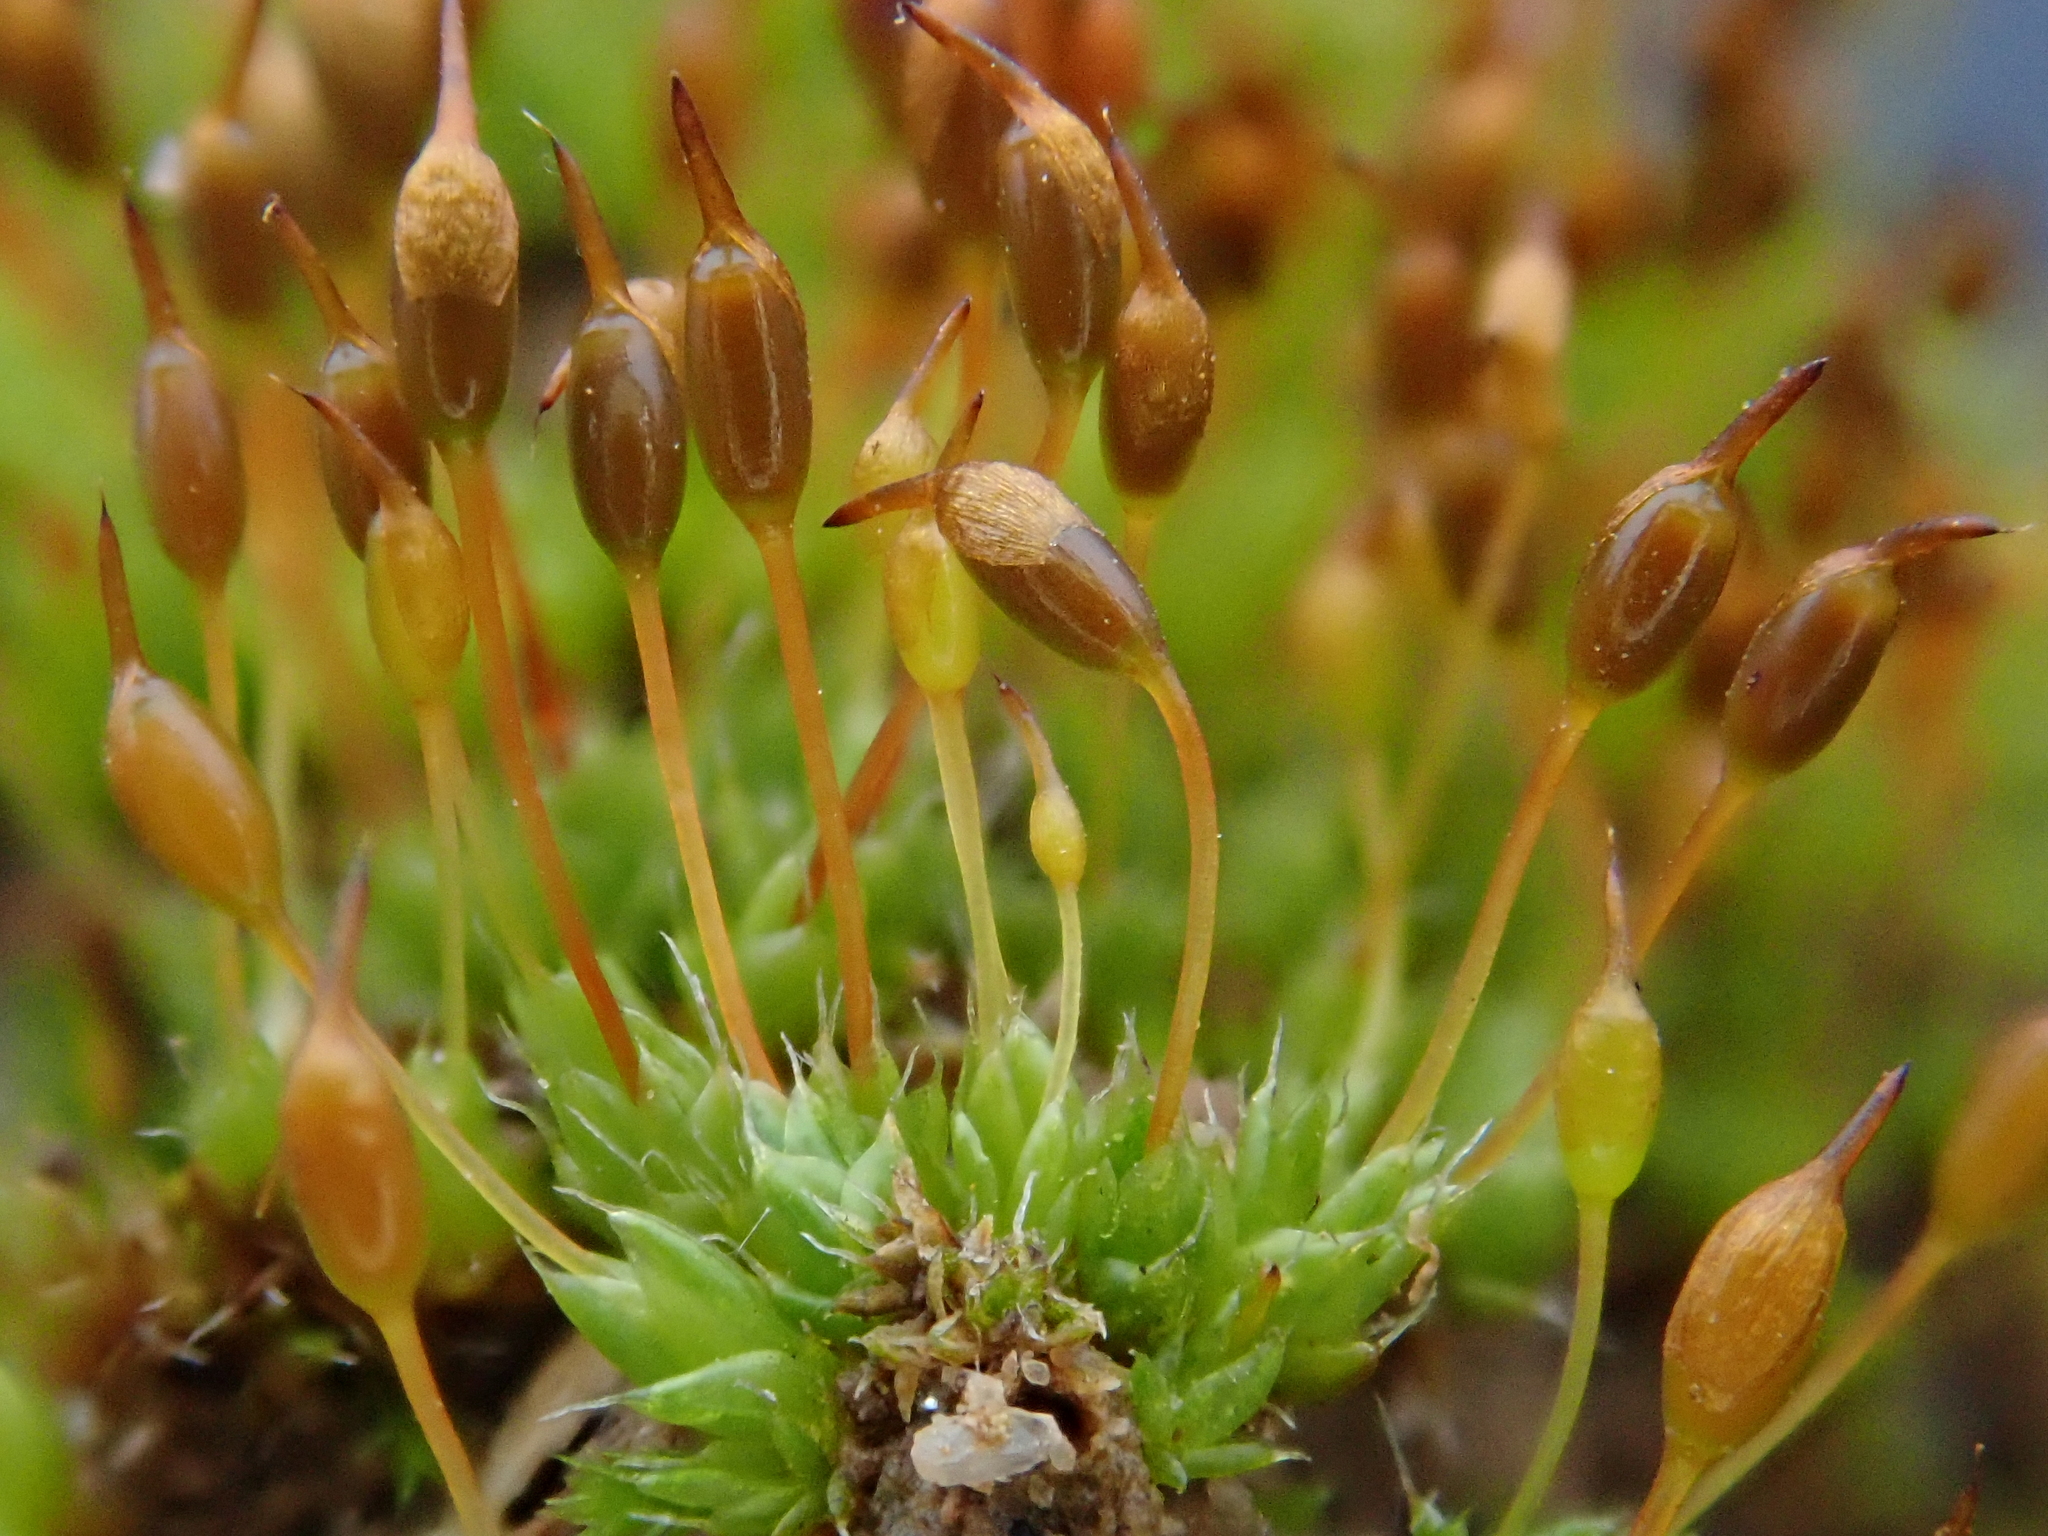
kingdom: Plantae
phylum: Bryophyta
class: Bryopsida
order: Pottiales
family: Pottiaceae
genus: Pterygoneurum
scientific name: Pterygoneurum ovatum
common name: Ovate pterygoneurum
